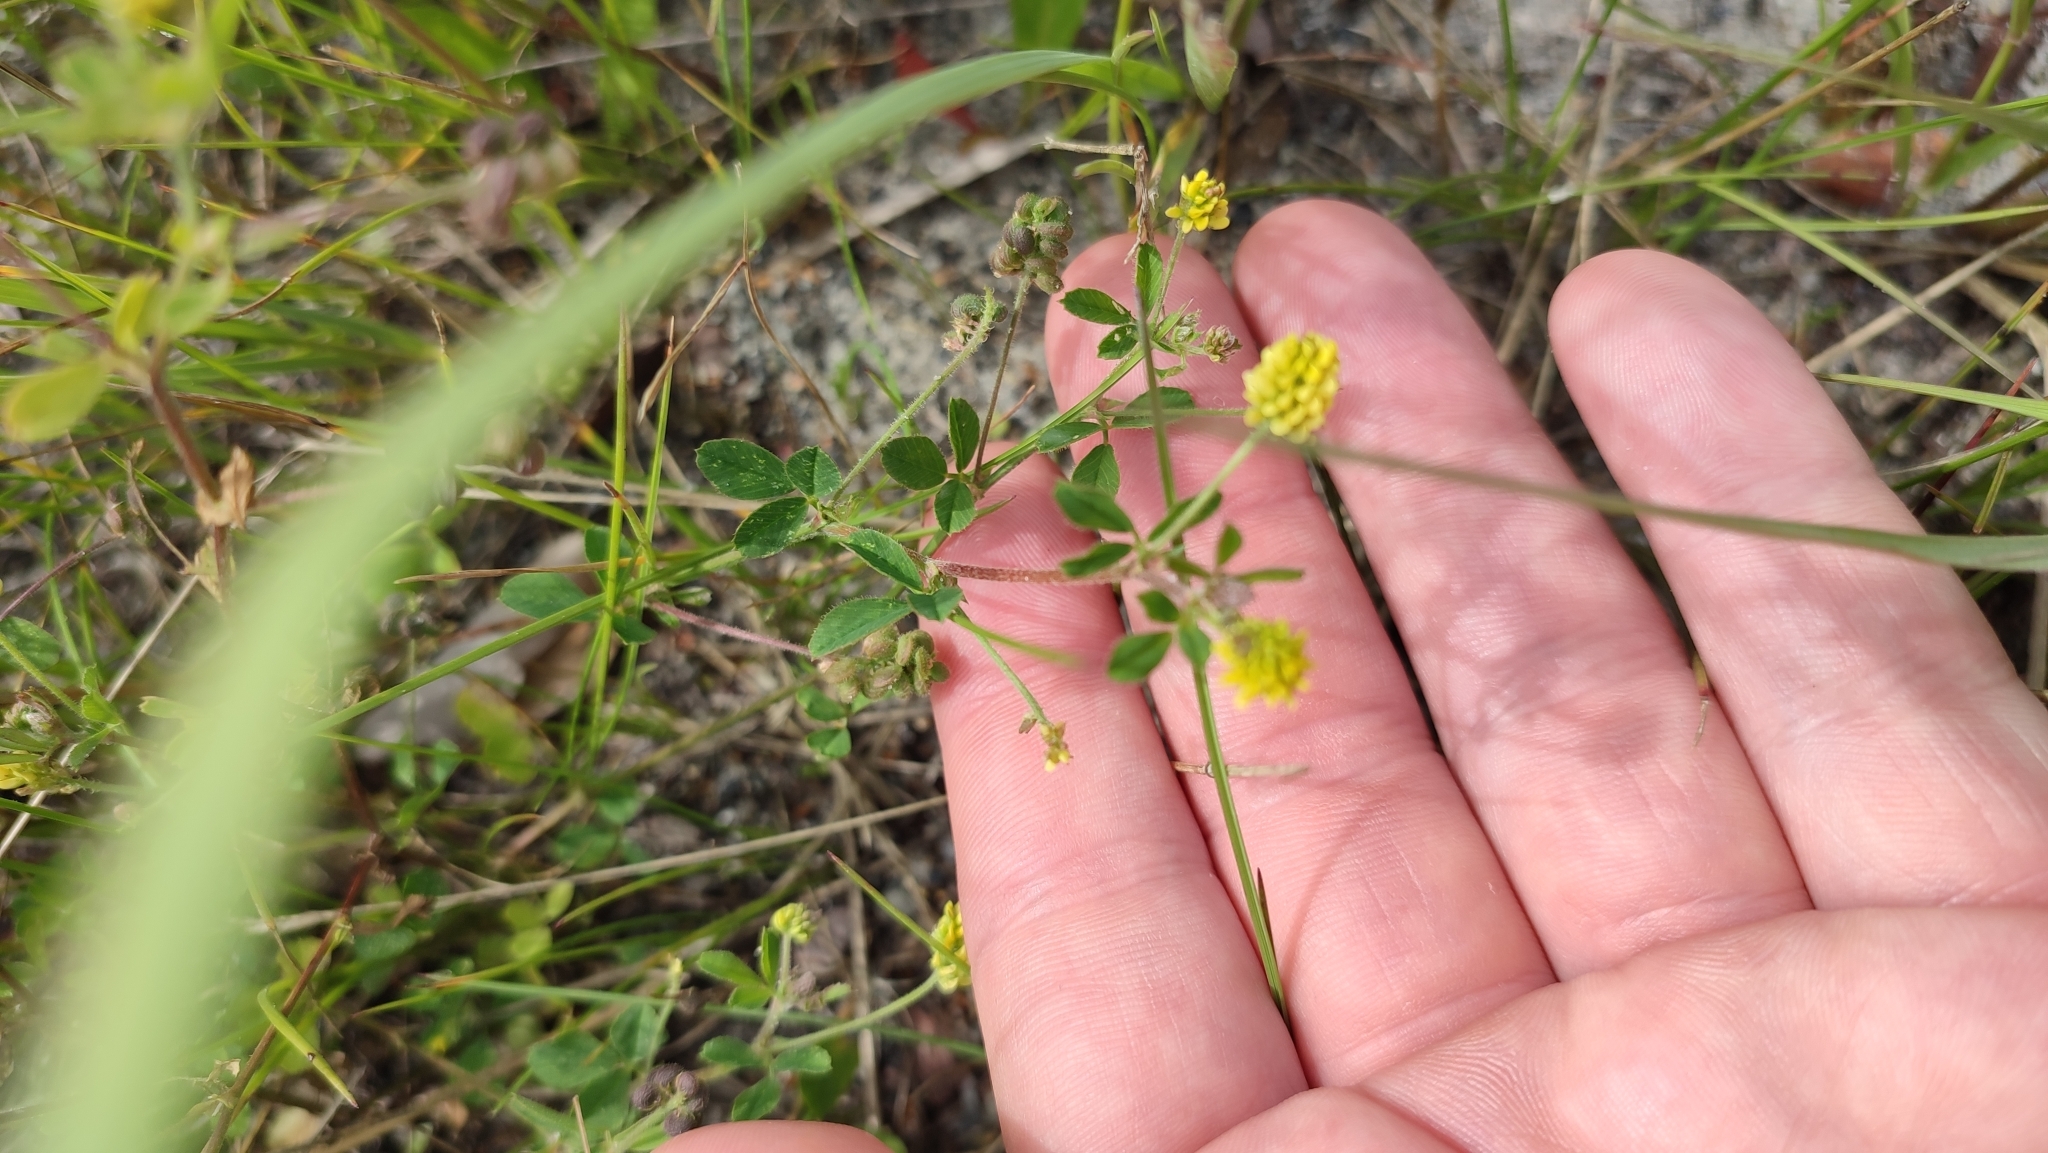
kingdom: Plantae
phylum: Tracheophyta
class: Magnoliopsida
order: Fabales
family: Fabaceae
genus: Medicago
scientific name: Medicago lupulina
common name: Black medick
